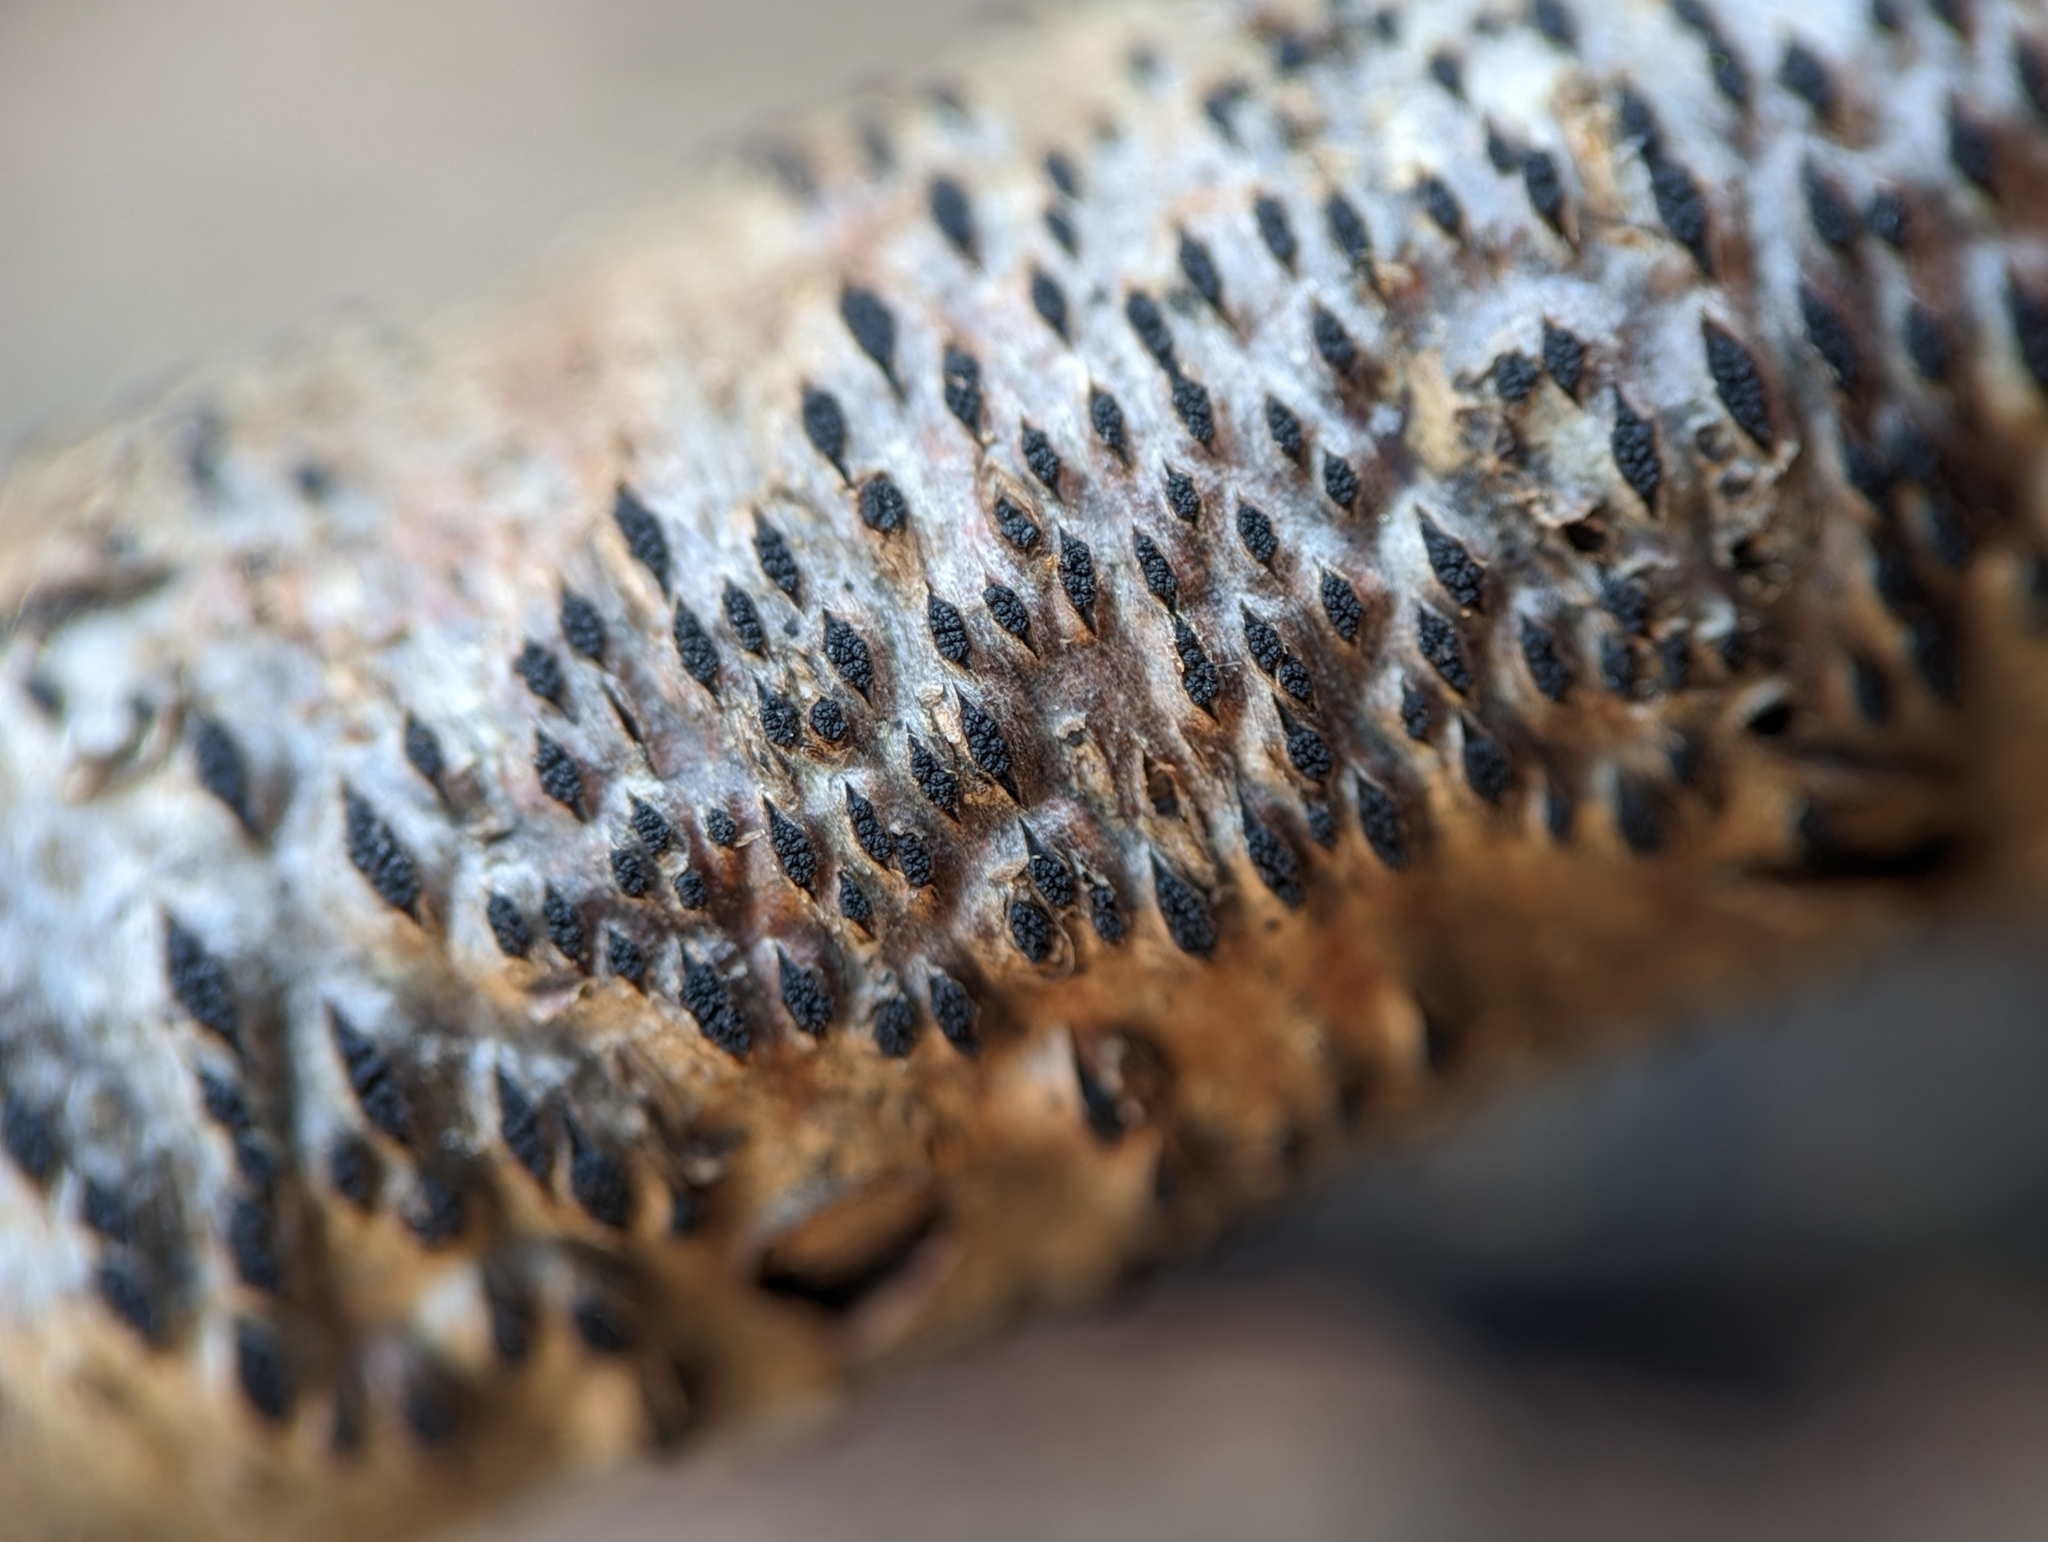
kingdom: Fungi
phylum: Ascomycota
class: Sordariomycetes
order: Xylariales
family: Diatrypaceae
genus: Eutypella
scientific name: Eutypella
